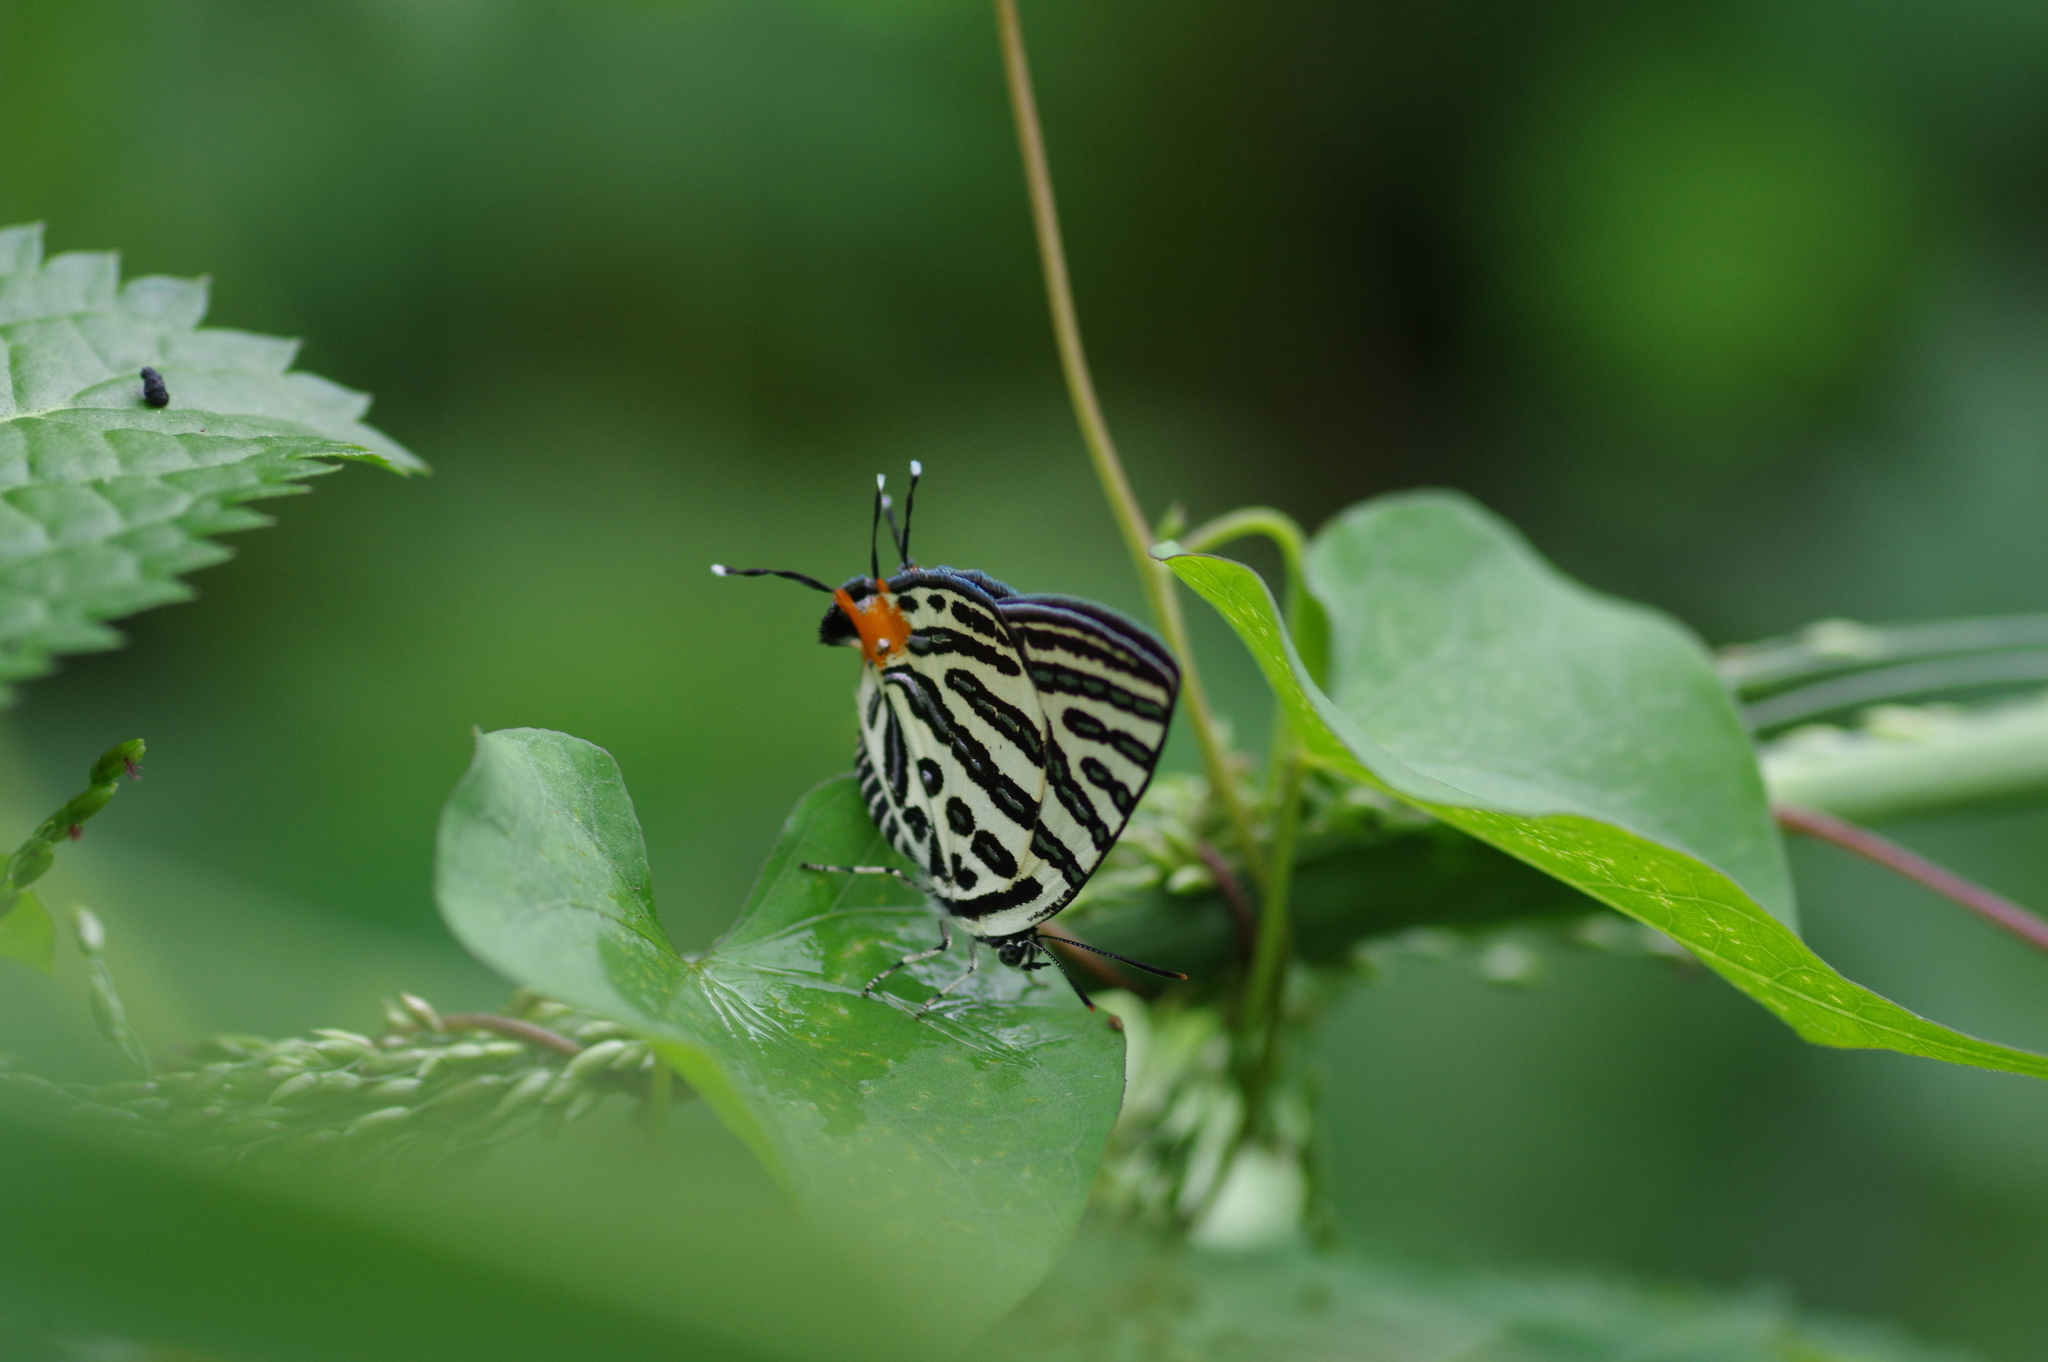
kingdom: Animalia
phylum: Arthropoda
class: Insecta
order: Lepidoptera
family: Lycaenidae
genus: Cigaritis
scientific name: Cigaritis syama
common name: Club silverline
